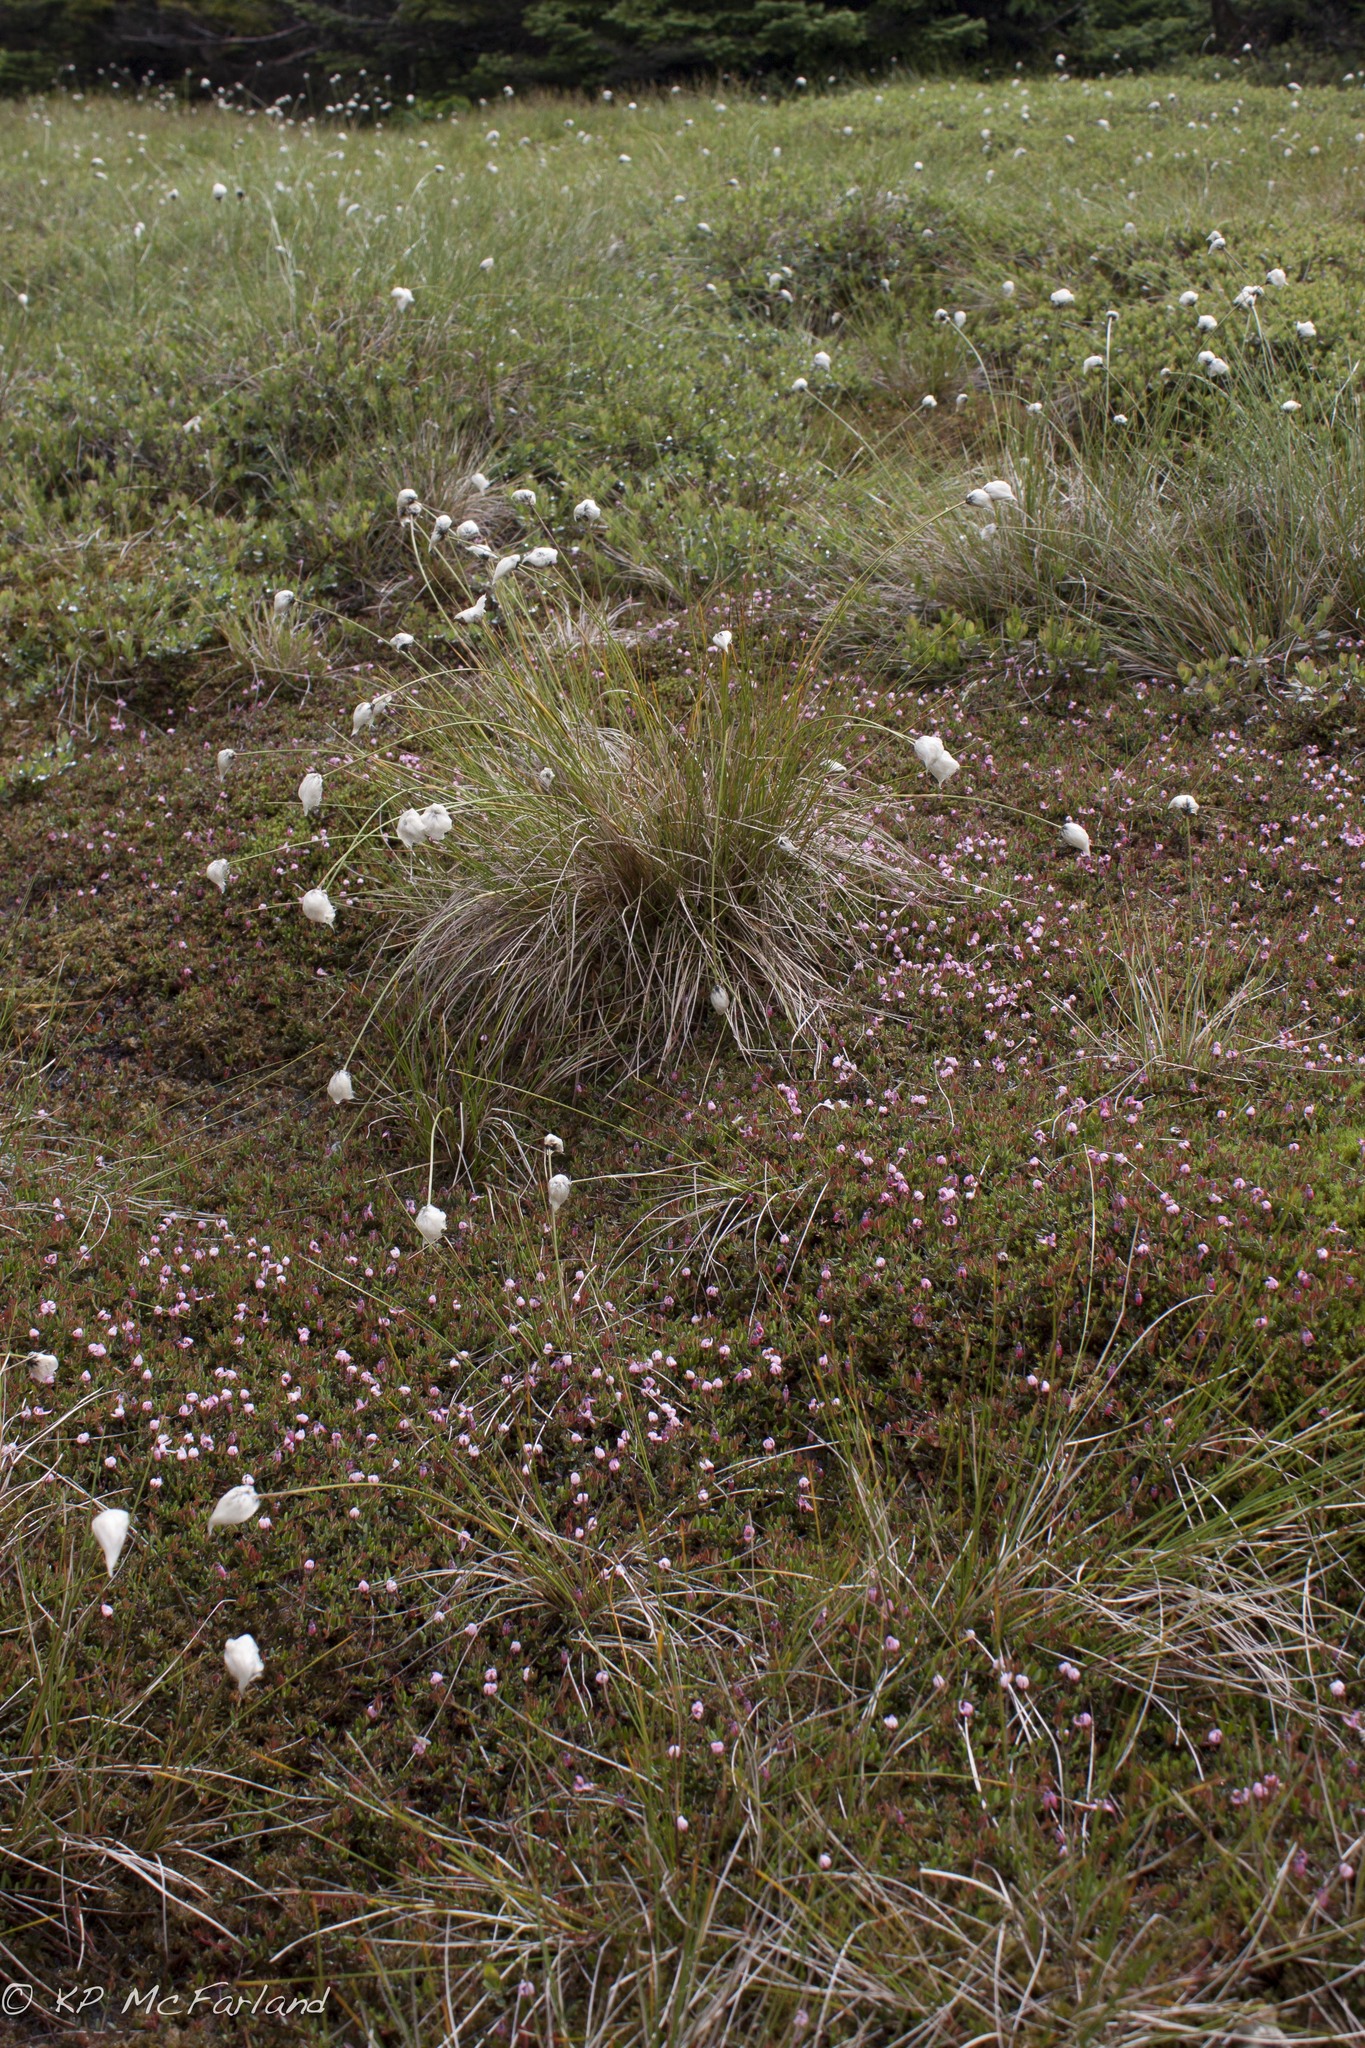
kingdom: Plantae
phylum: Tracheophyta
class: Magnoliopsida
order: Ericales
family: Ericaceae
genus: Vaccinium
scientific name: Vaccinium oxycoccos
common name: Cranberry
